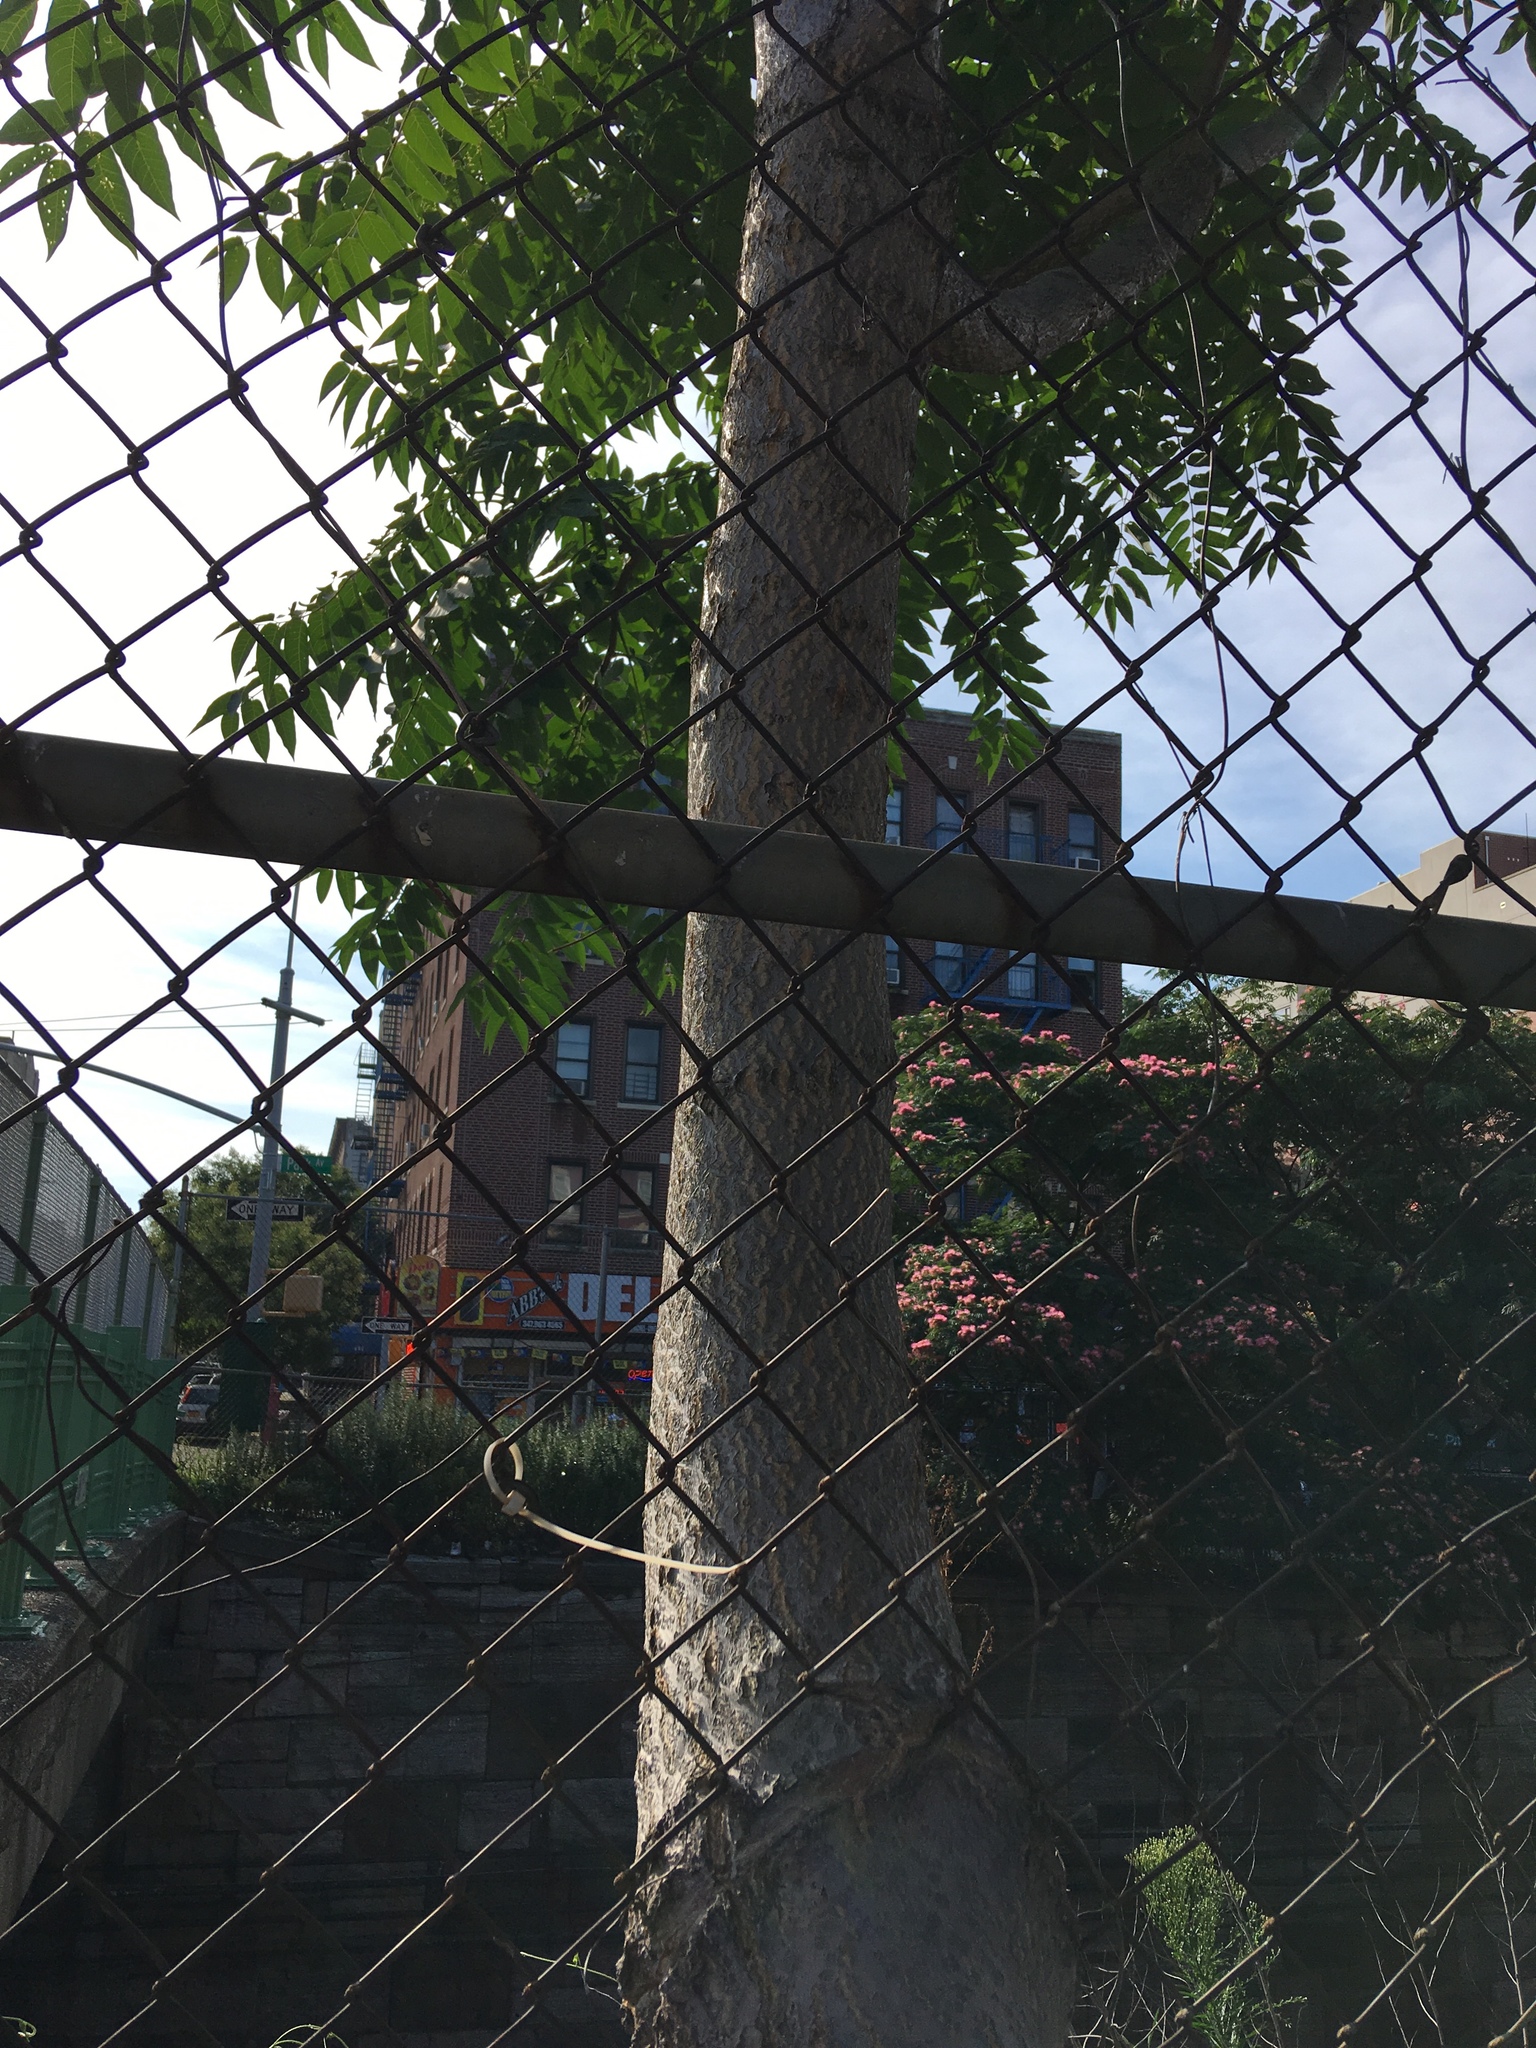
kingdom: Plantae
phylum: Tracheophyta
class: Magnoliopsida
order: Sapindales
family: Simaroubaceae
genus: Ailanthus
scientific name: Ailanthus altissima
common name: Tree-of-heaven
